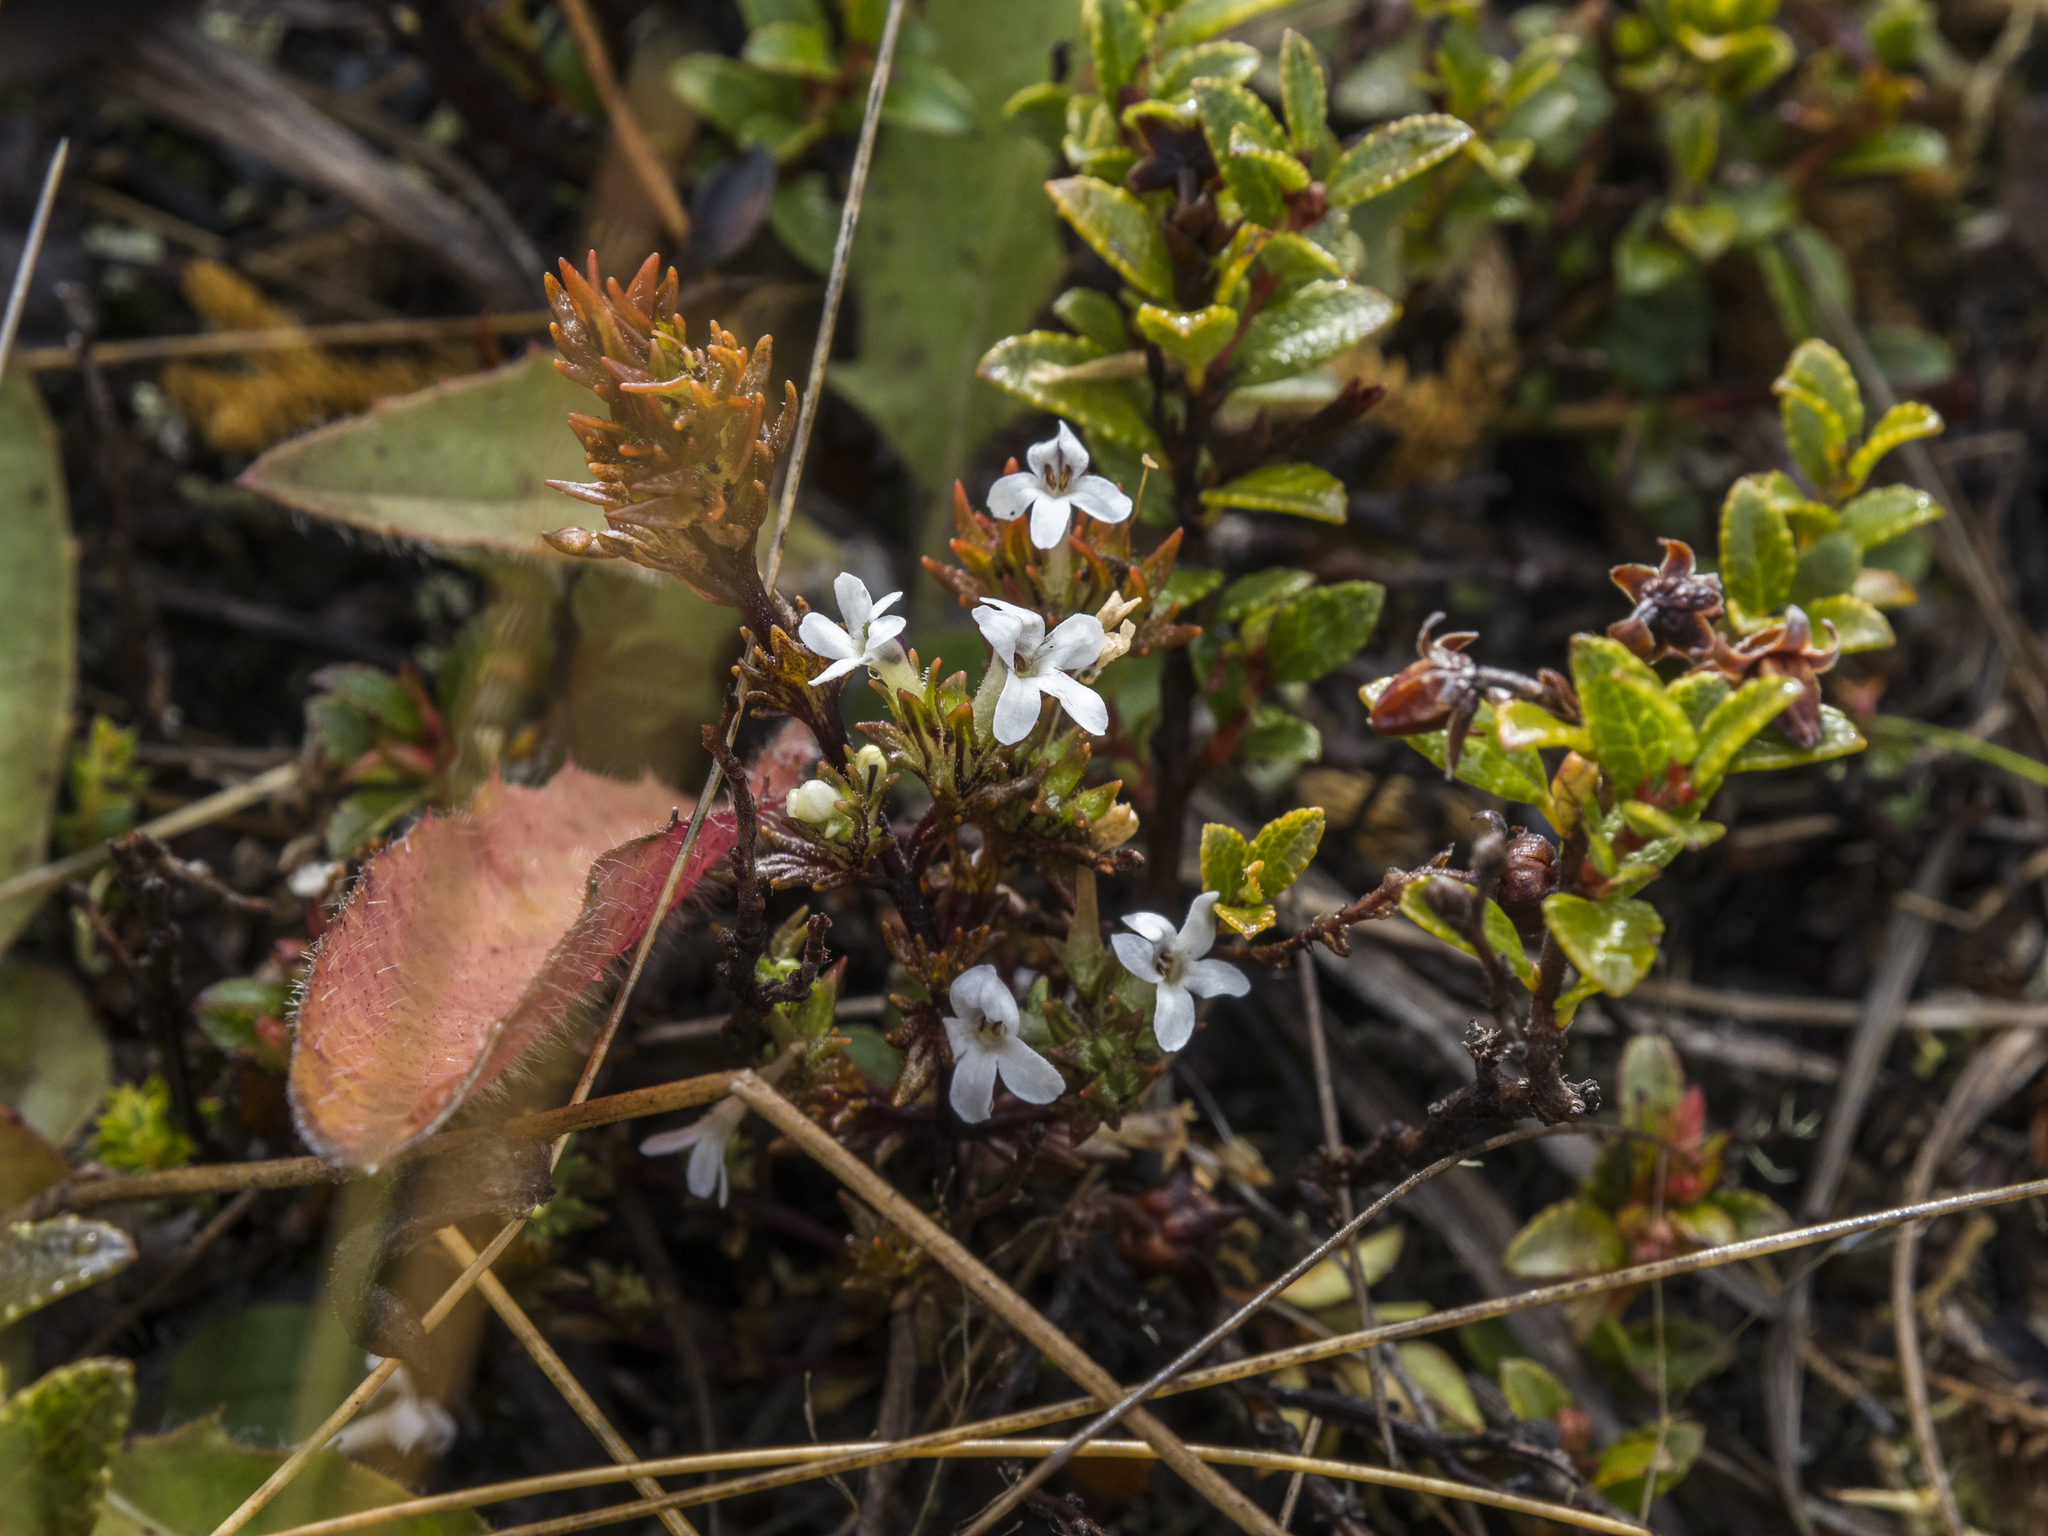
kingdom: Plantae
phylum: Tracheophyta
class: Magnoliopsida
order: Lamiales
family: Orobanchaceae
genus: Euphrasia
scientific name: Euphrasia zelandica
